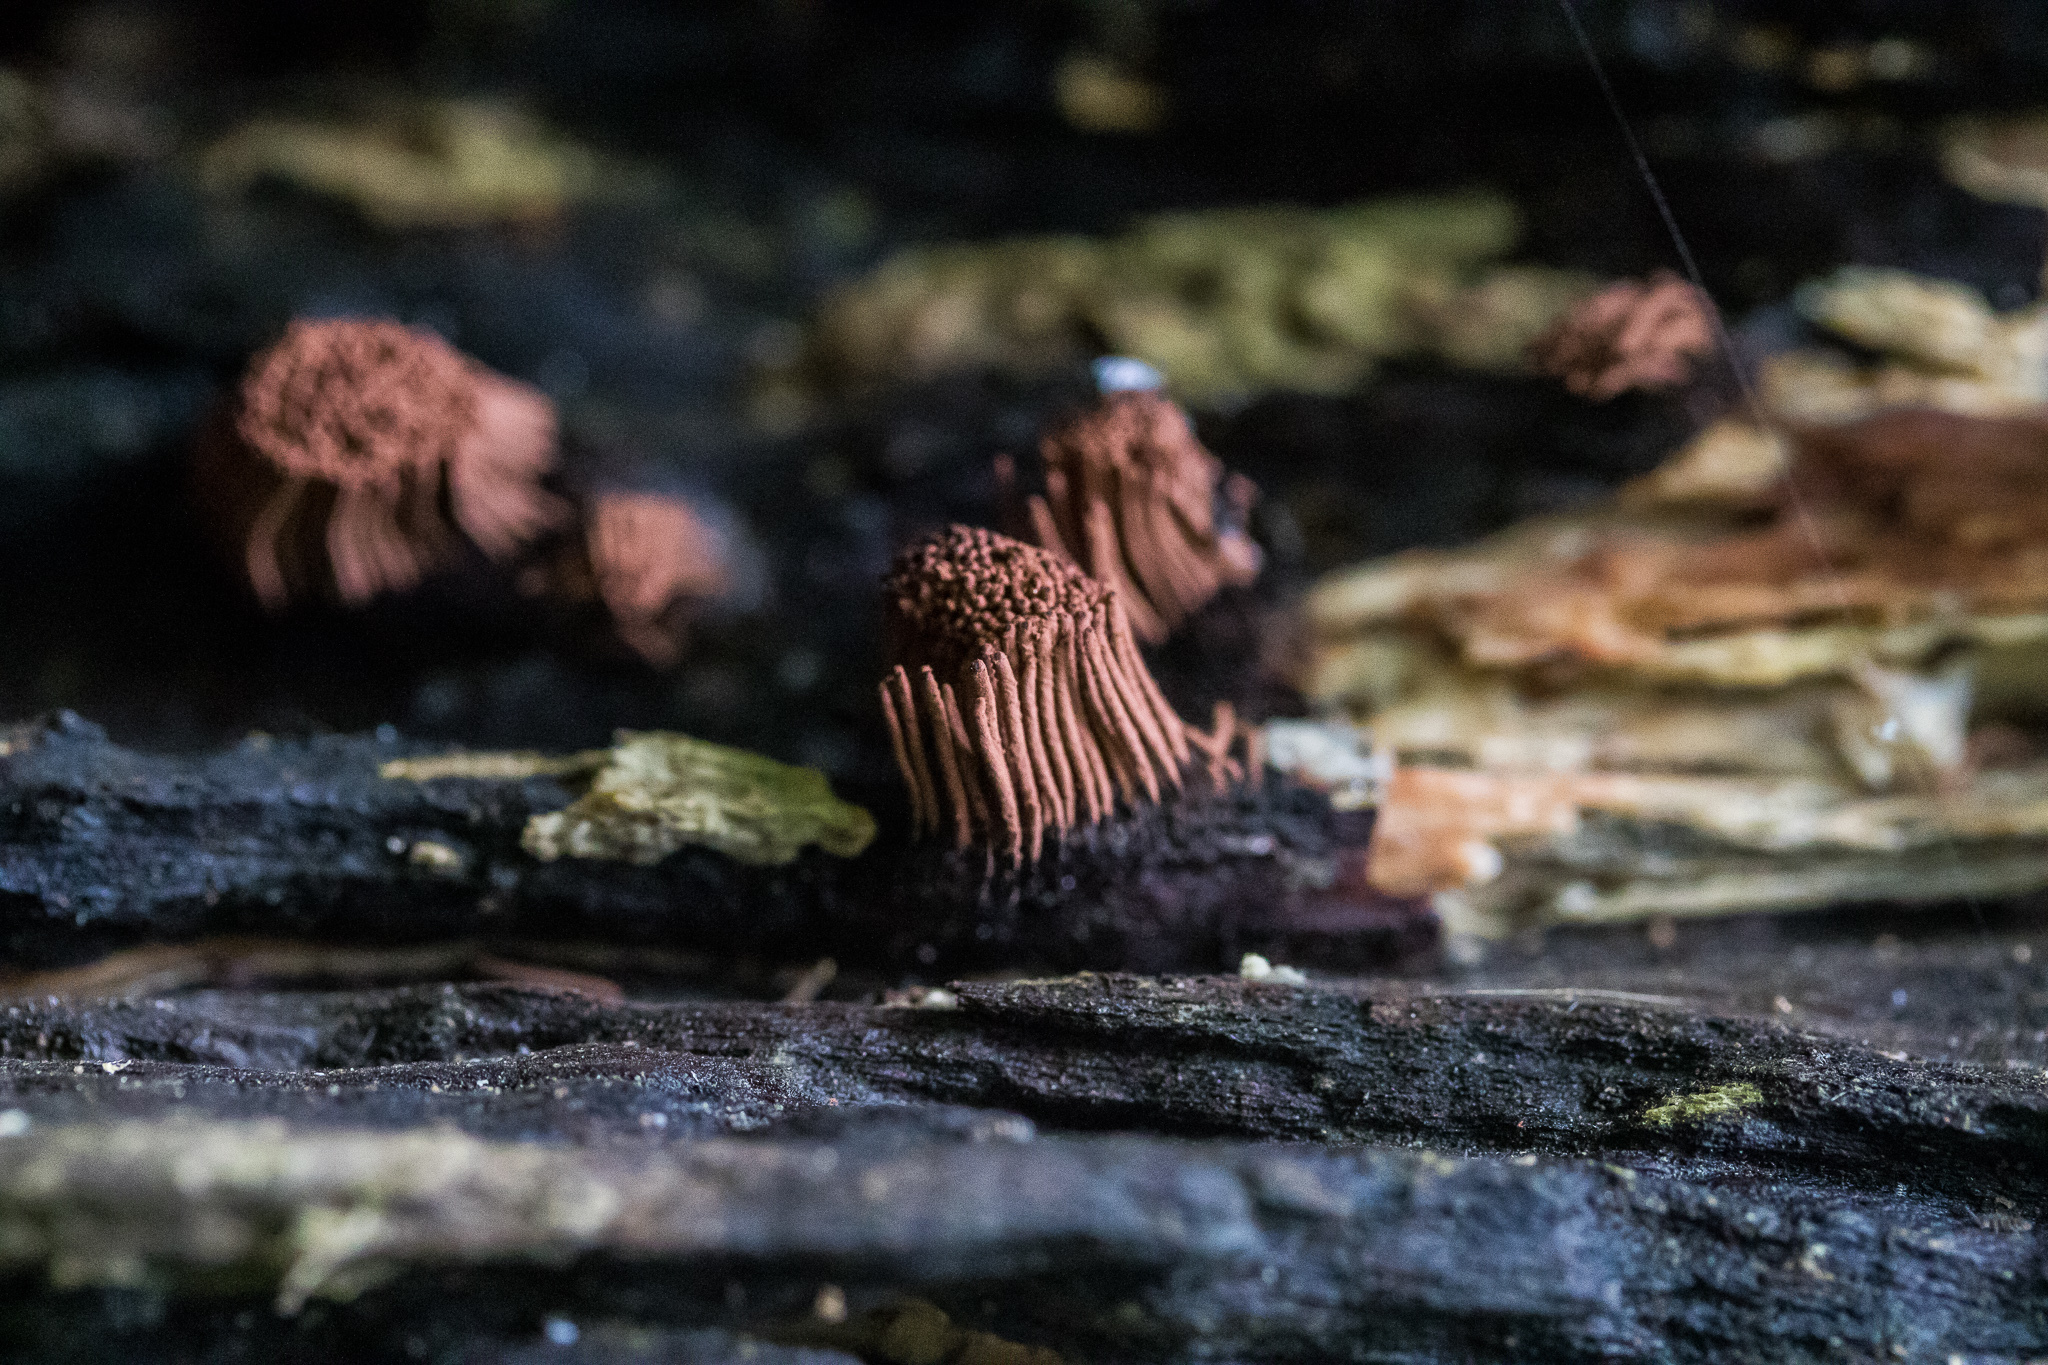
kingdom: Protozoa
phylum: Mycetozoa
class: Myxomycetes
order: Stemonitidales
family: Stemonitidaceae
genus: Stemonitis
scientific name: Stemonitis splendens
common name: Chocolate tube slime
